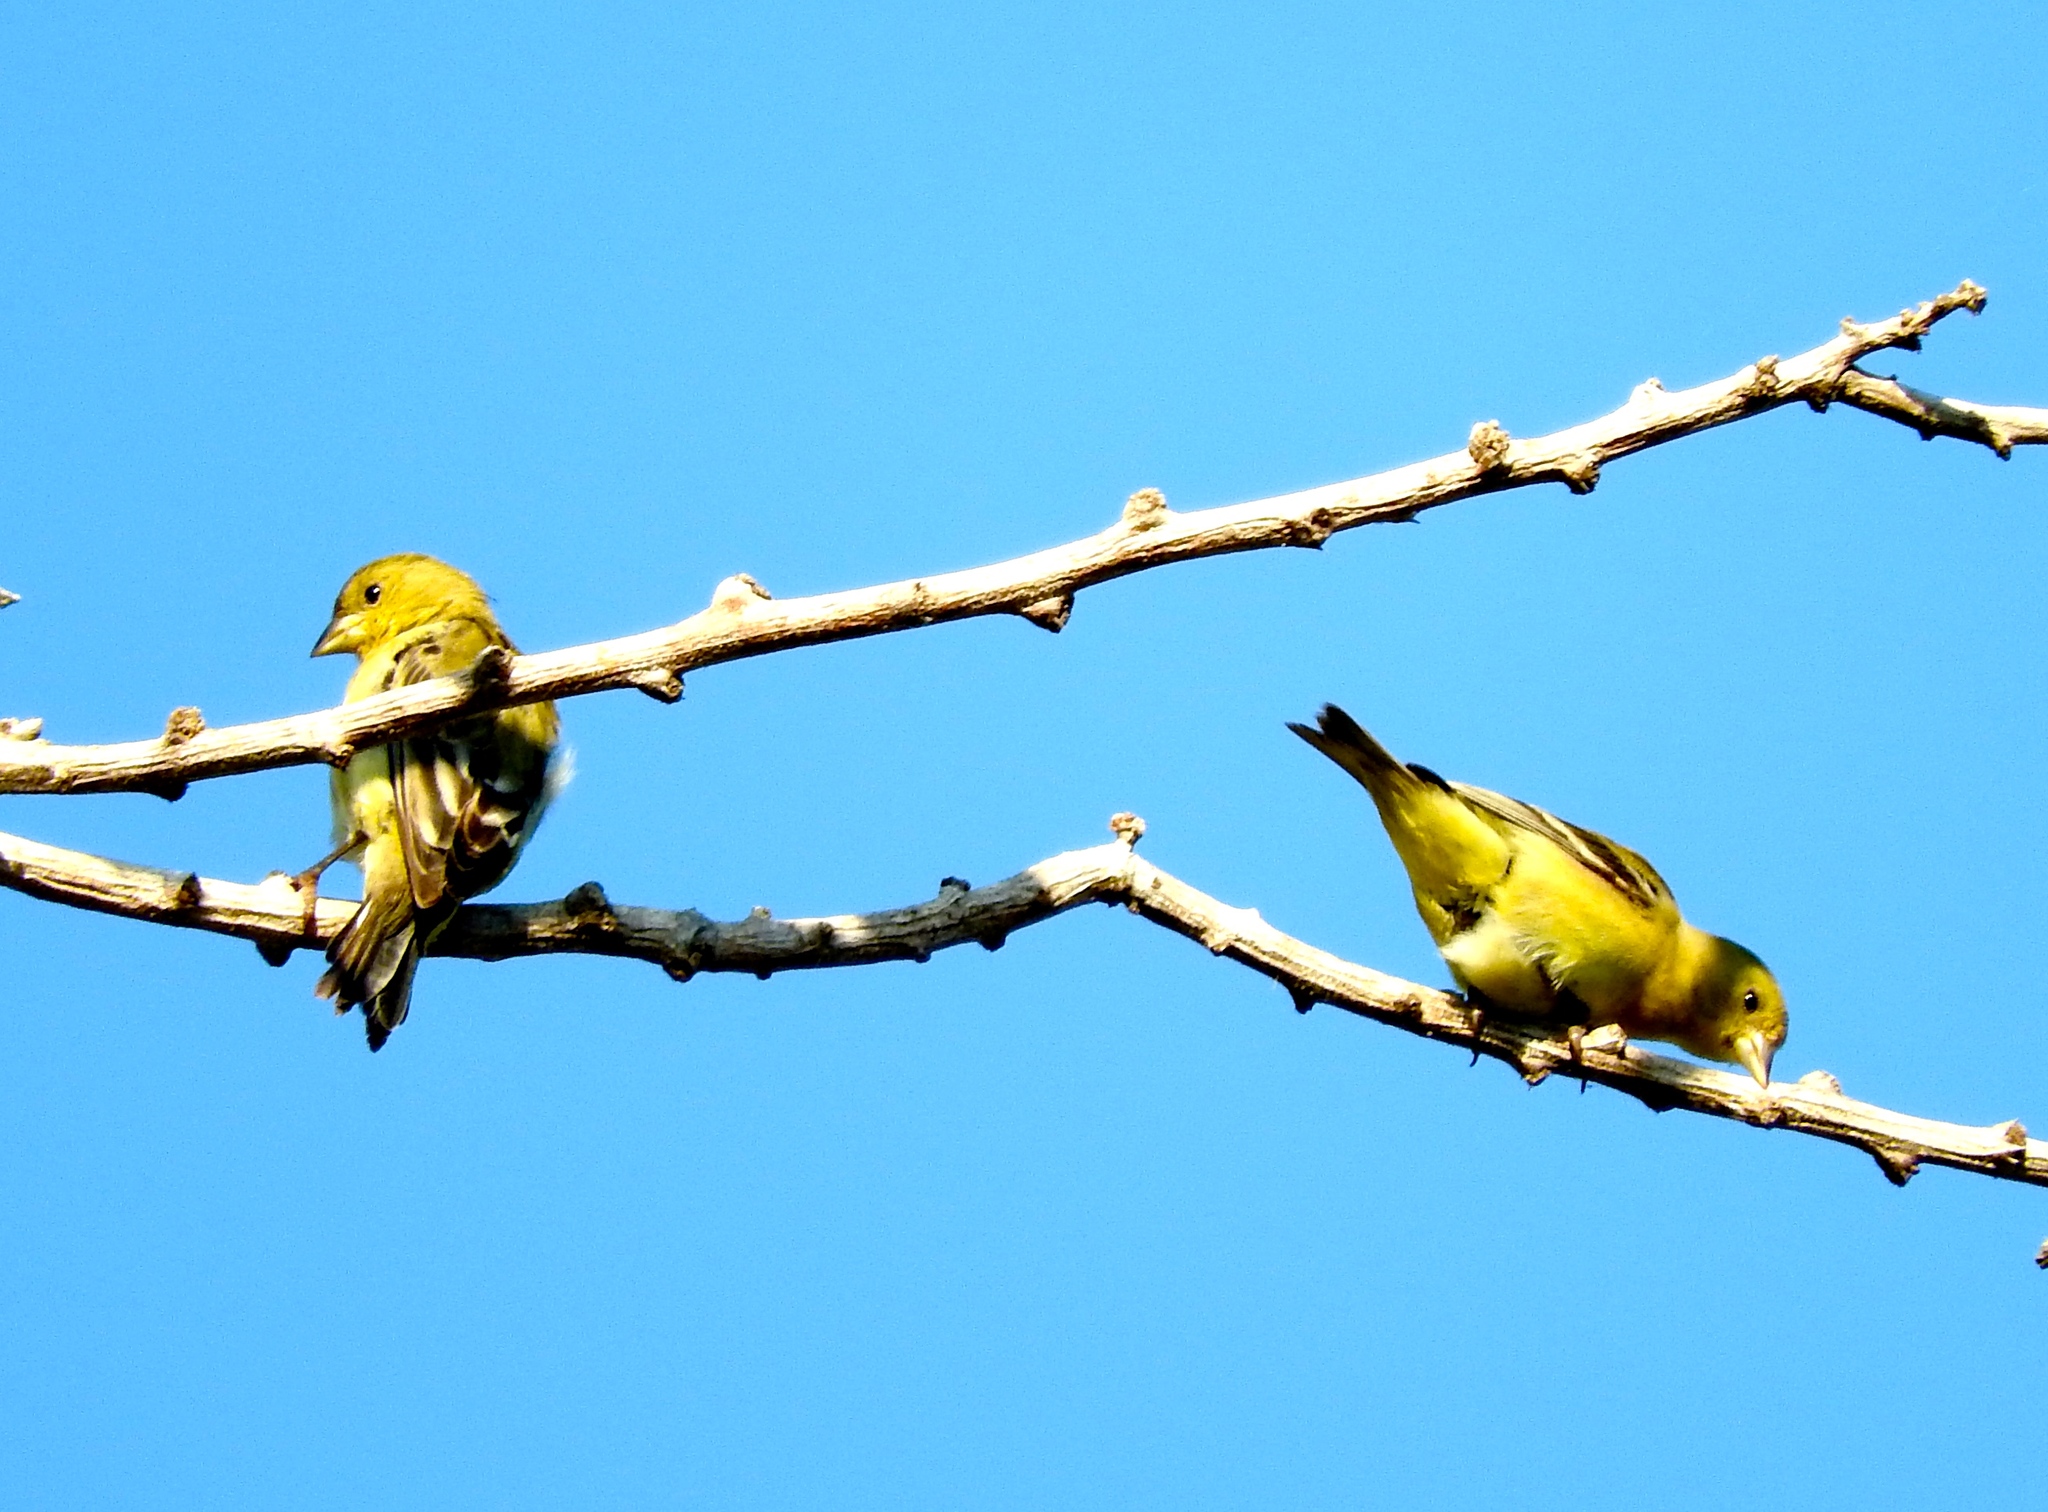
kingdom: Animalia
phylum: Chordata
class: Aves
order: Passeriformes
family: Fringillidae
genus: Spinus
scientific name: Spinus psaltria
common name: Lesser goldfinch
